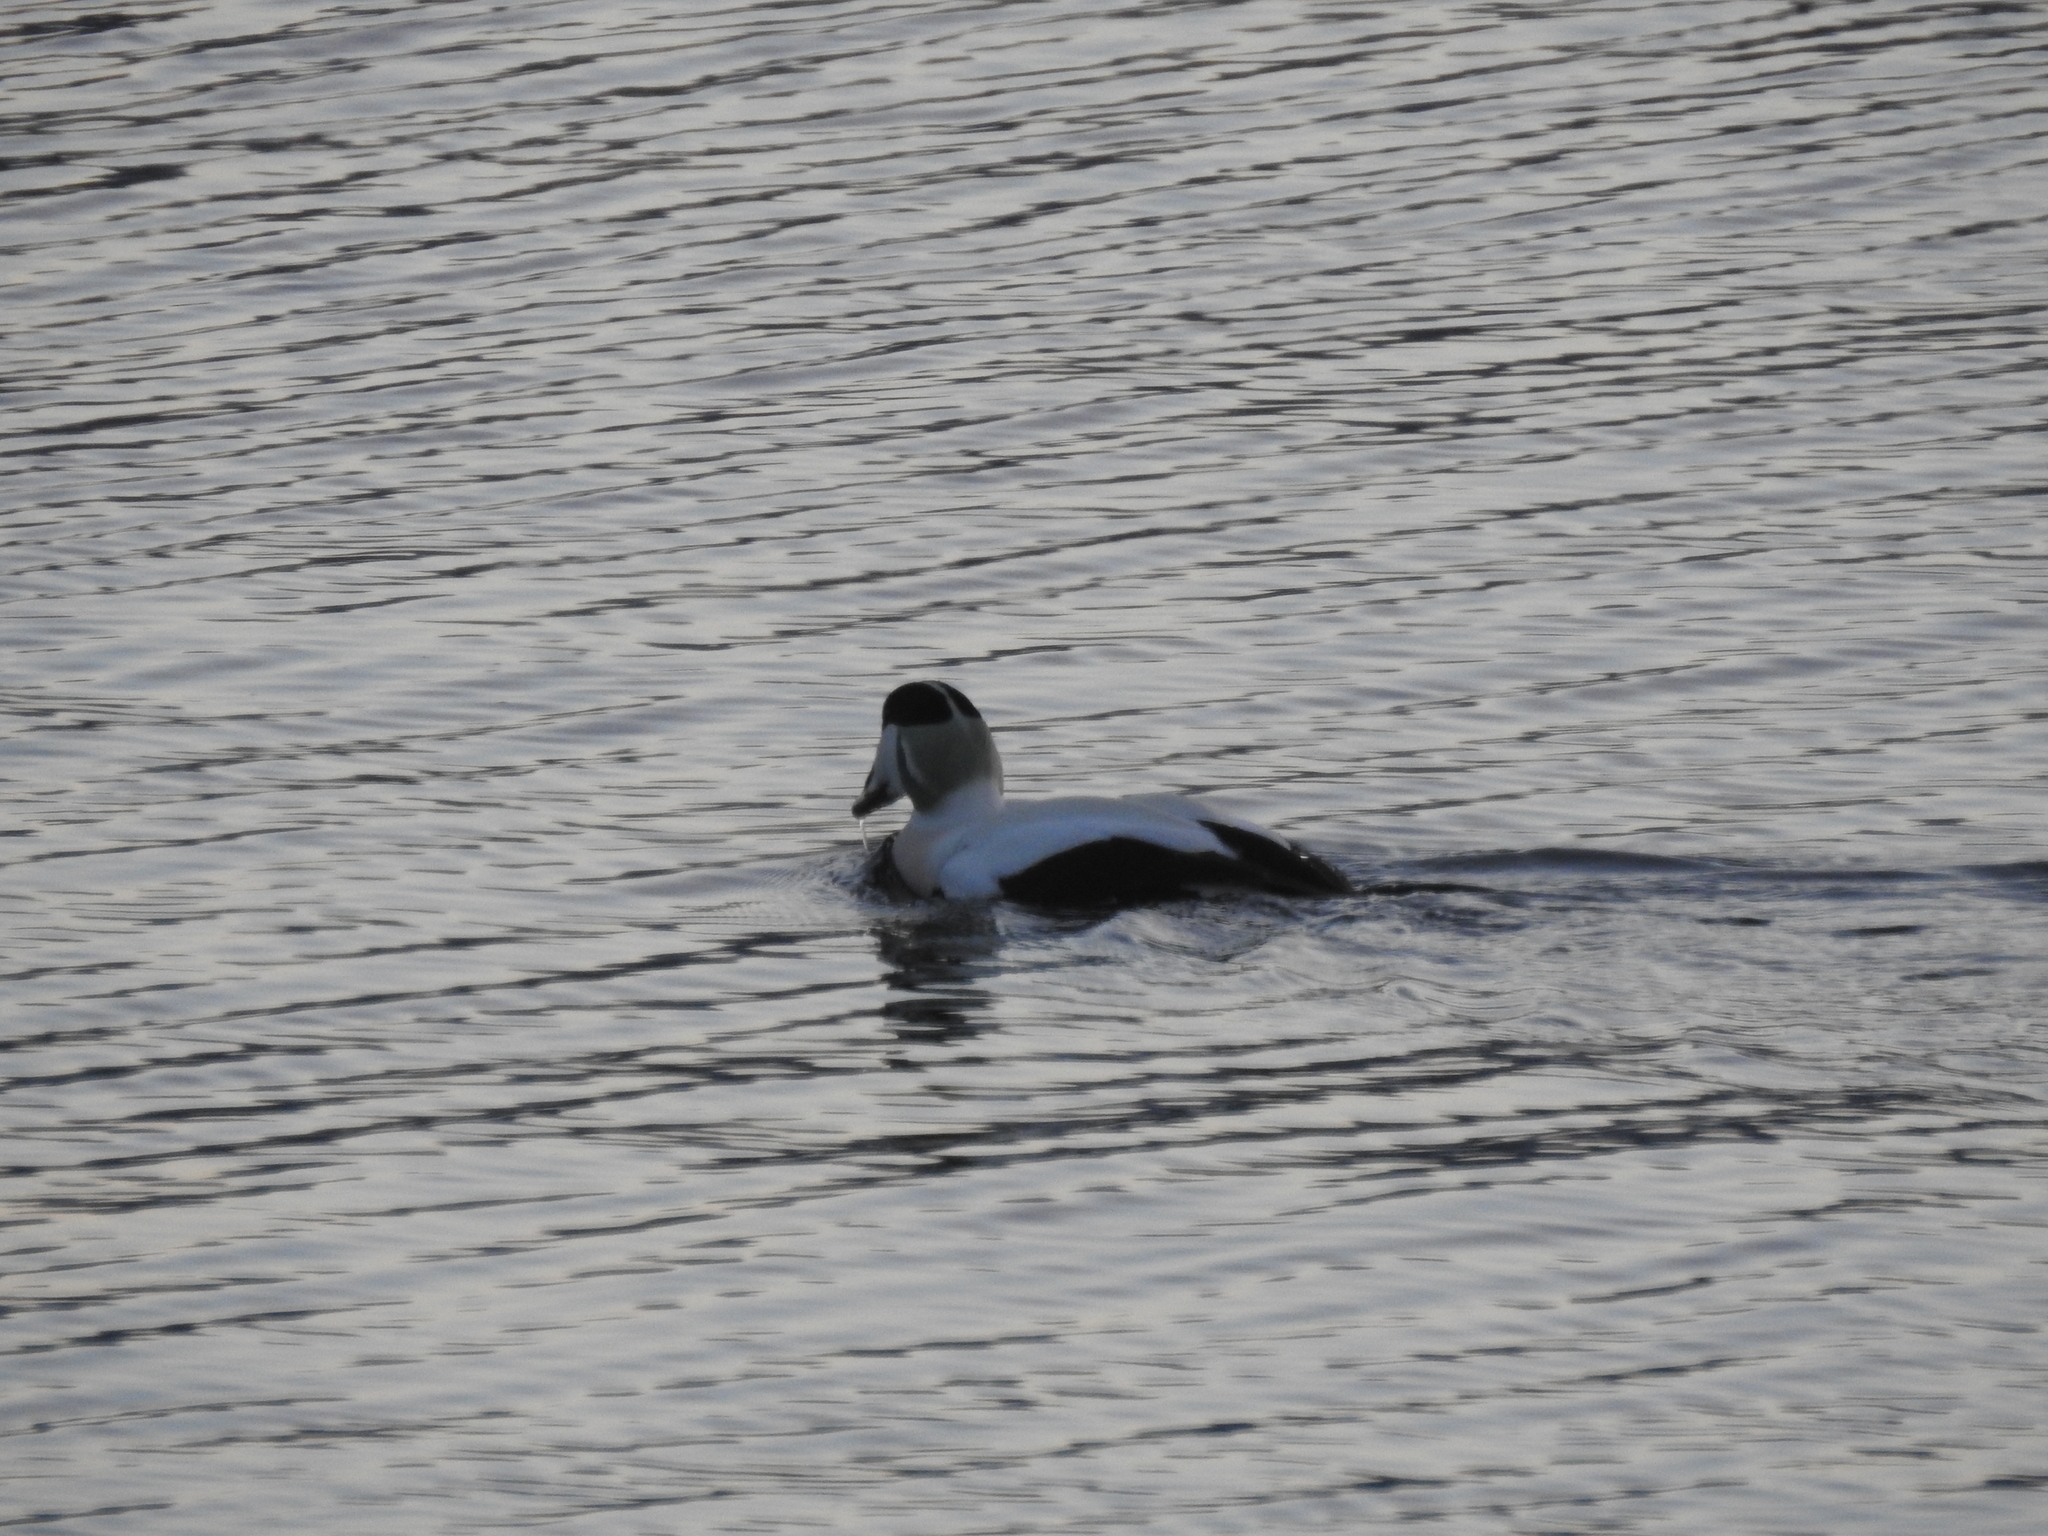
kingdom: Animalia
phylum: Chordata
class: Aves
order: Anseriformes
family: Anatidae
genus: Somateria
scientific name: Somateria mollissima
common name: Common eider
